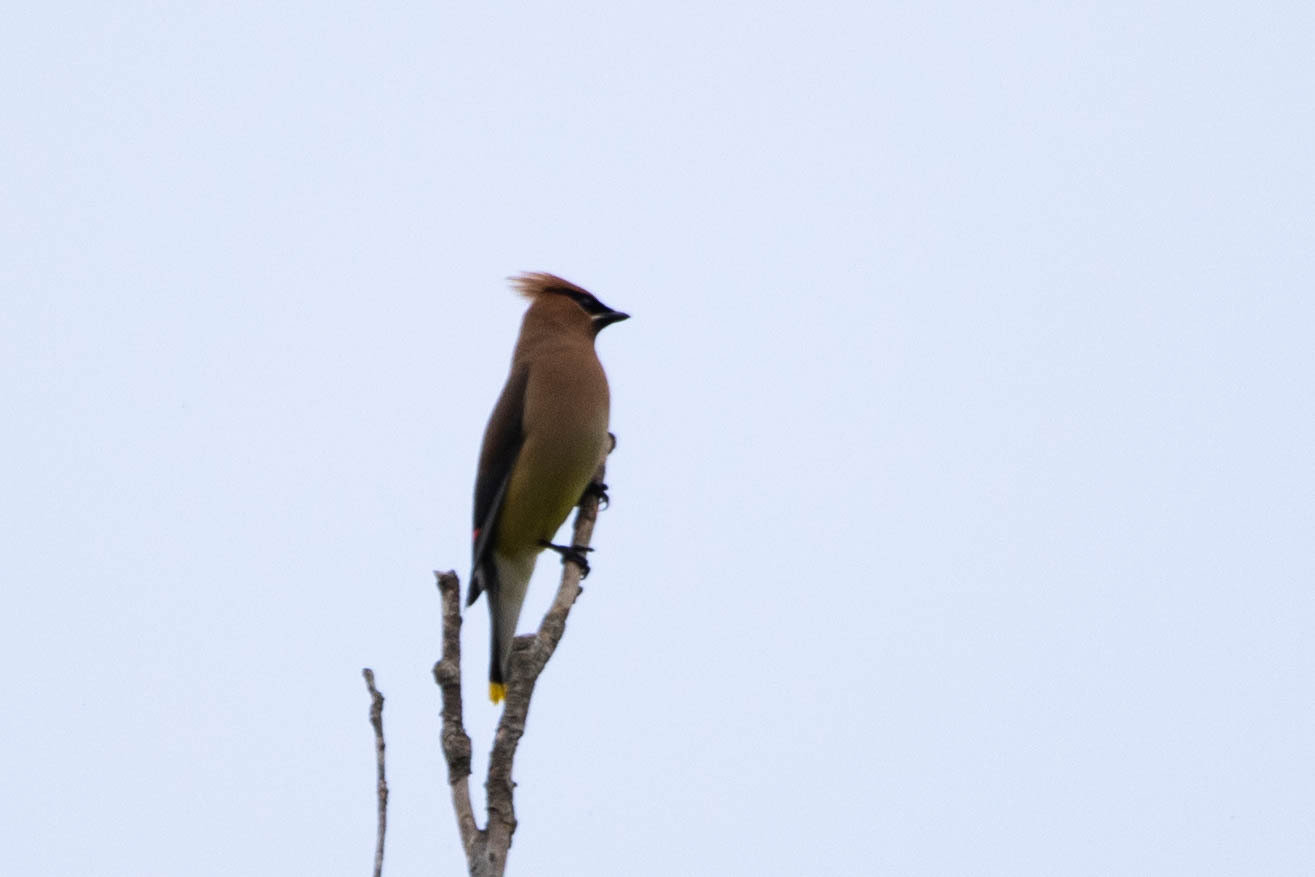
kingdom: Animalia
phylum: Chordata
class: Aves
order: Passeriformes
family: Bombycillidae
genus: Bombycilla
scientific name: Bombycilla cedrorum
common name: Cedar waxwing
